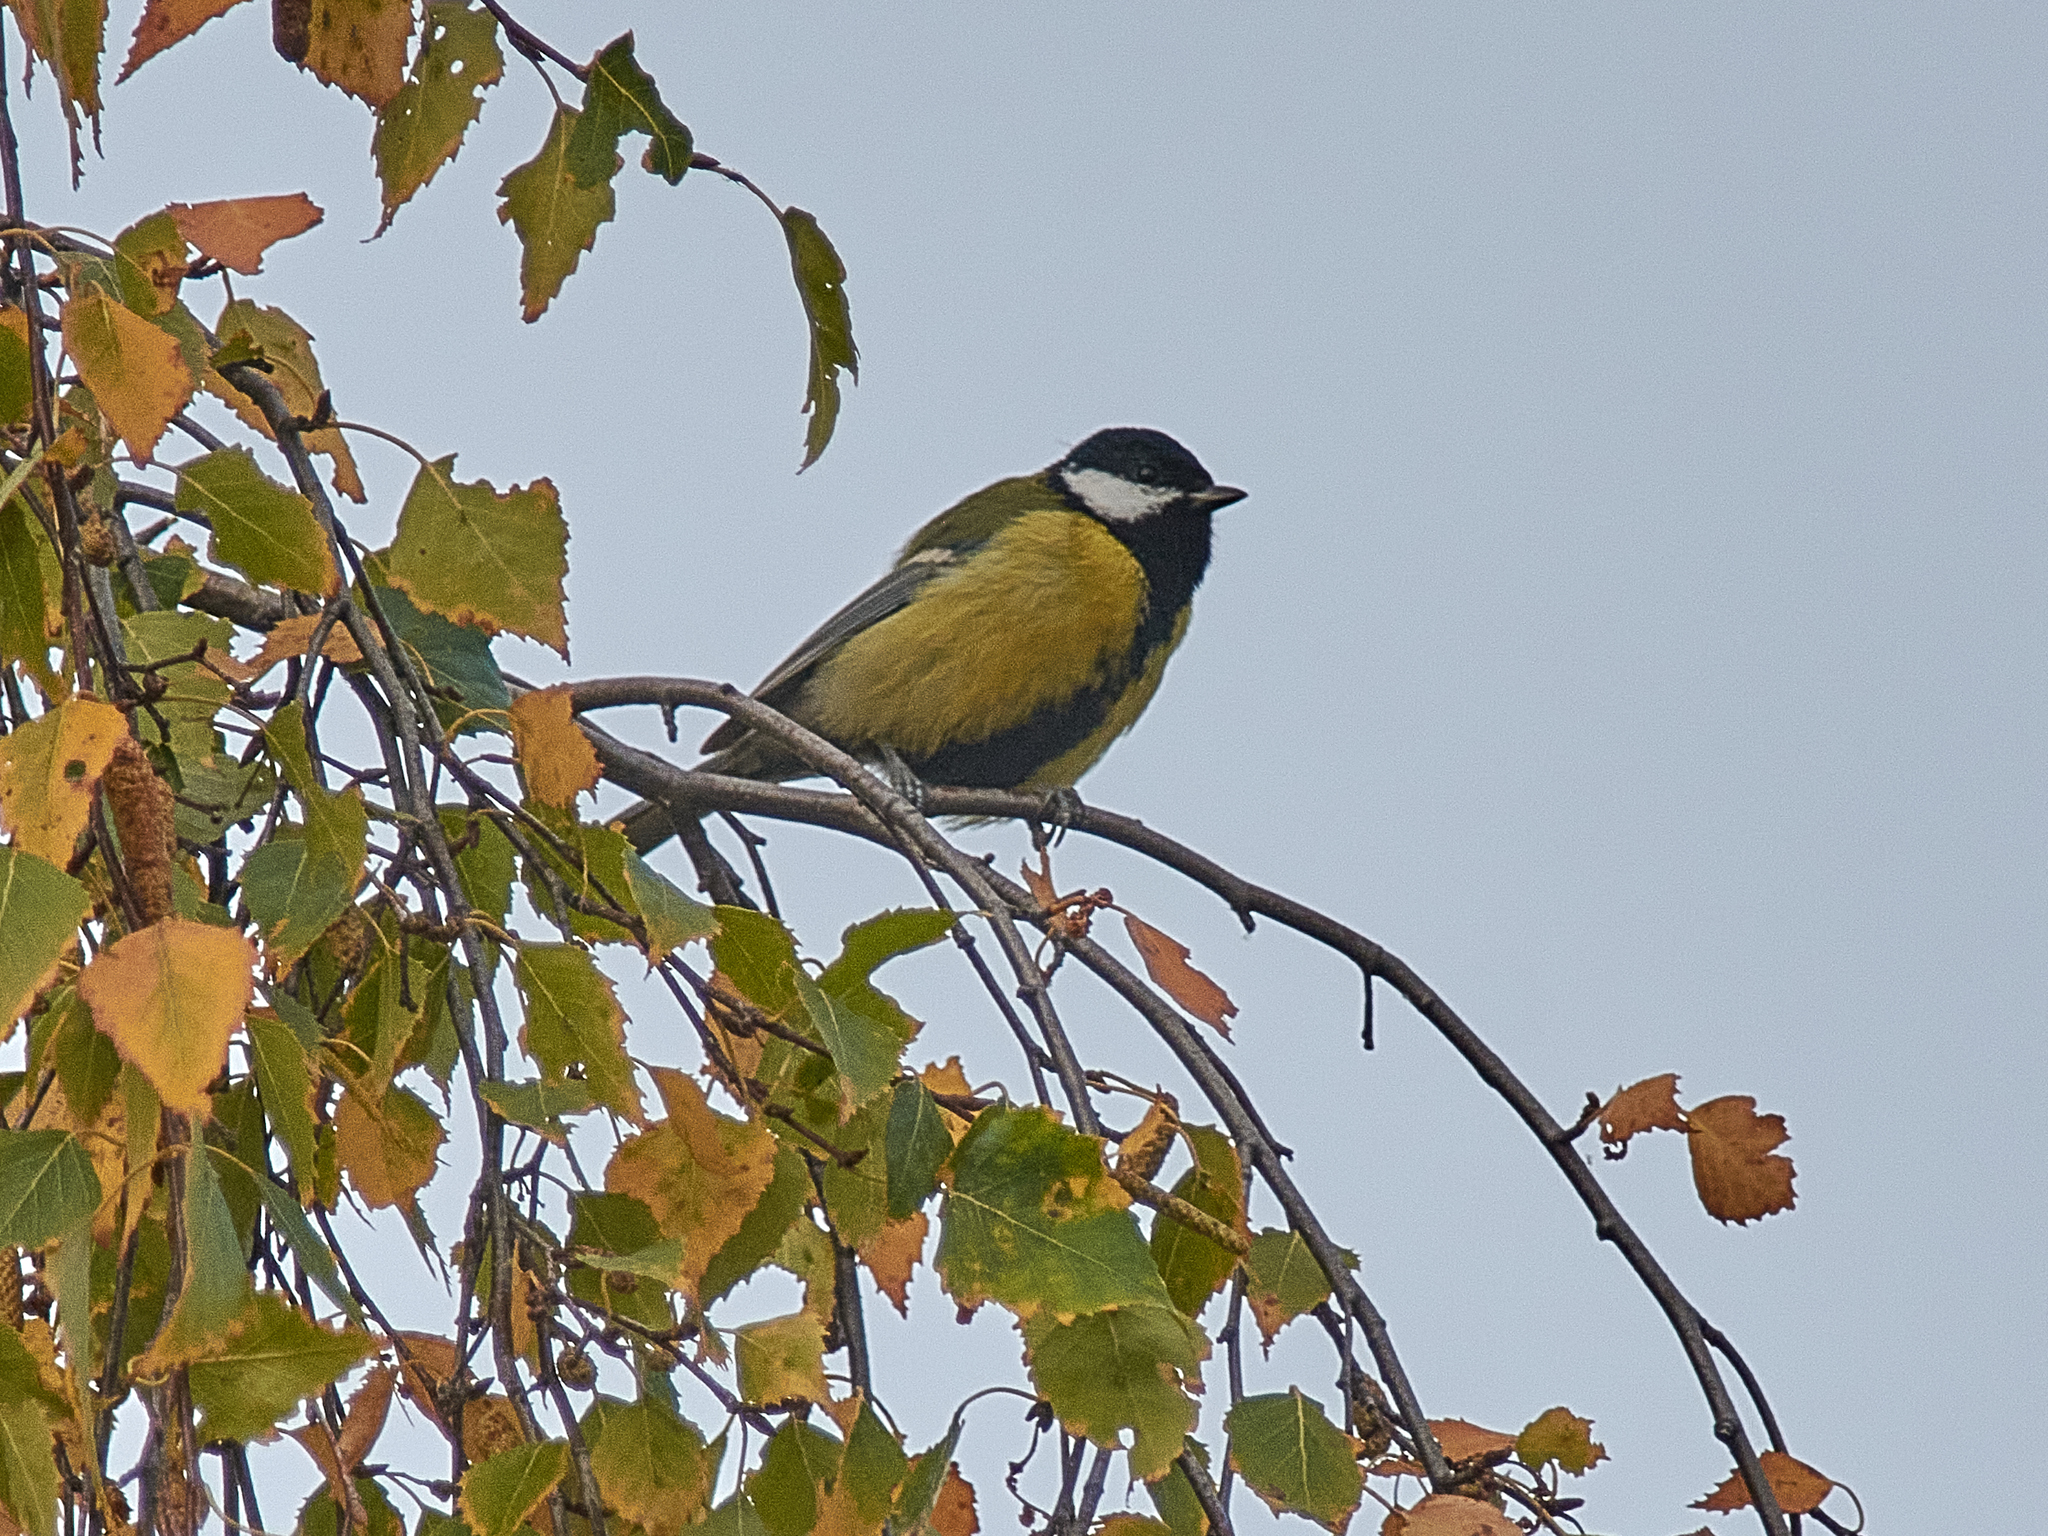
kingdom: Animalia
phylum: Chordata
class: Aves
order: Passeriformes
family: Paridae
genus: Parus
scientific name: Parus major
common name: Great tit
